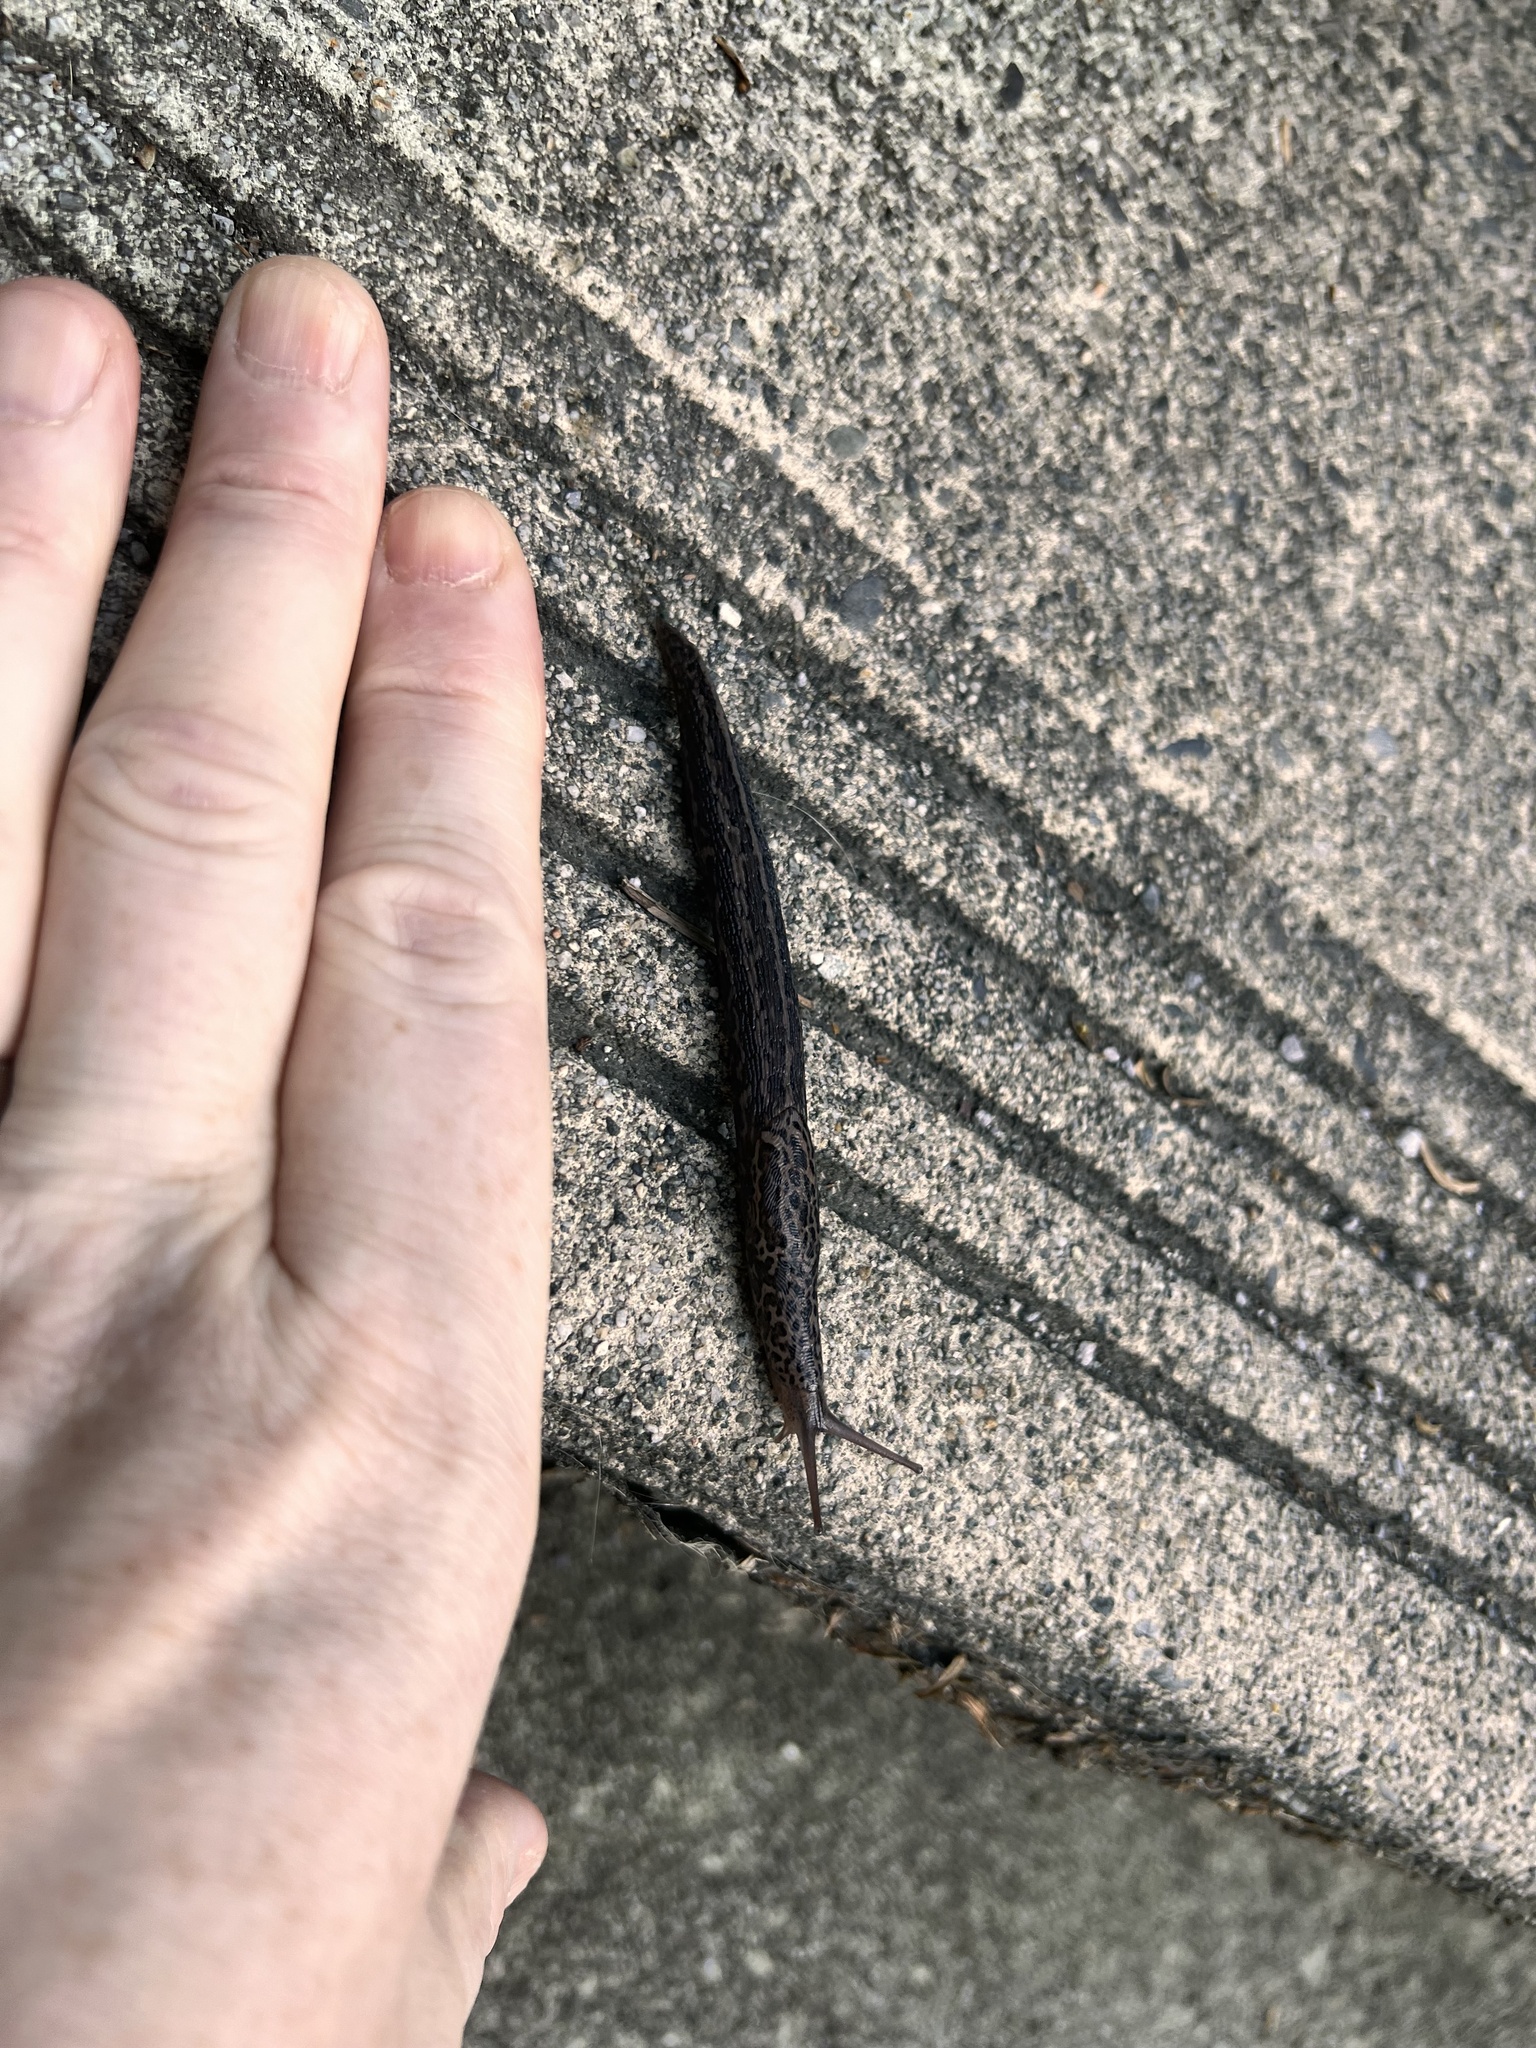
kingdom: Animalia
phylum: Mollusca
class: Gastropoda
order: Stylommatophora
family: Limacidae
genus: Limax
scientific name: Limax maximus
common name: Great grey slug
